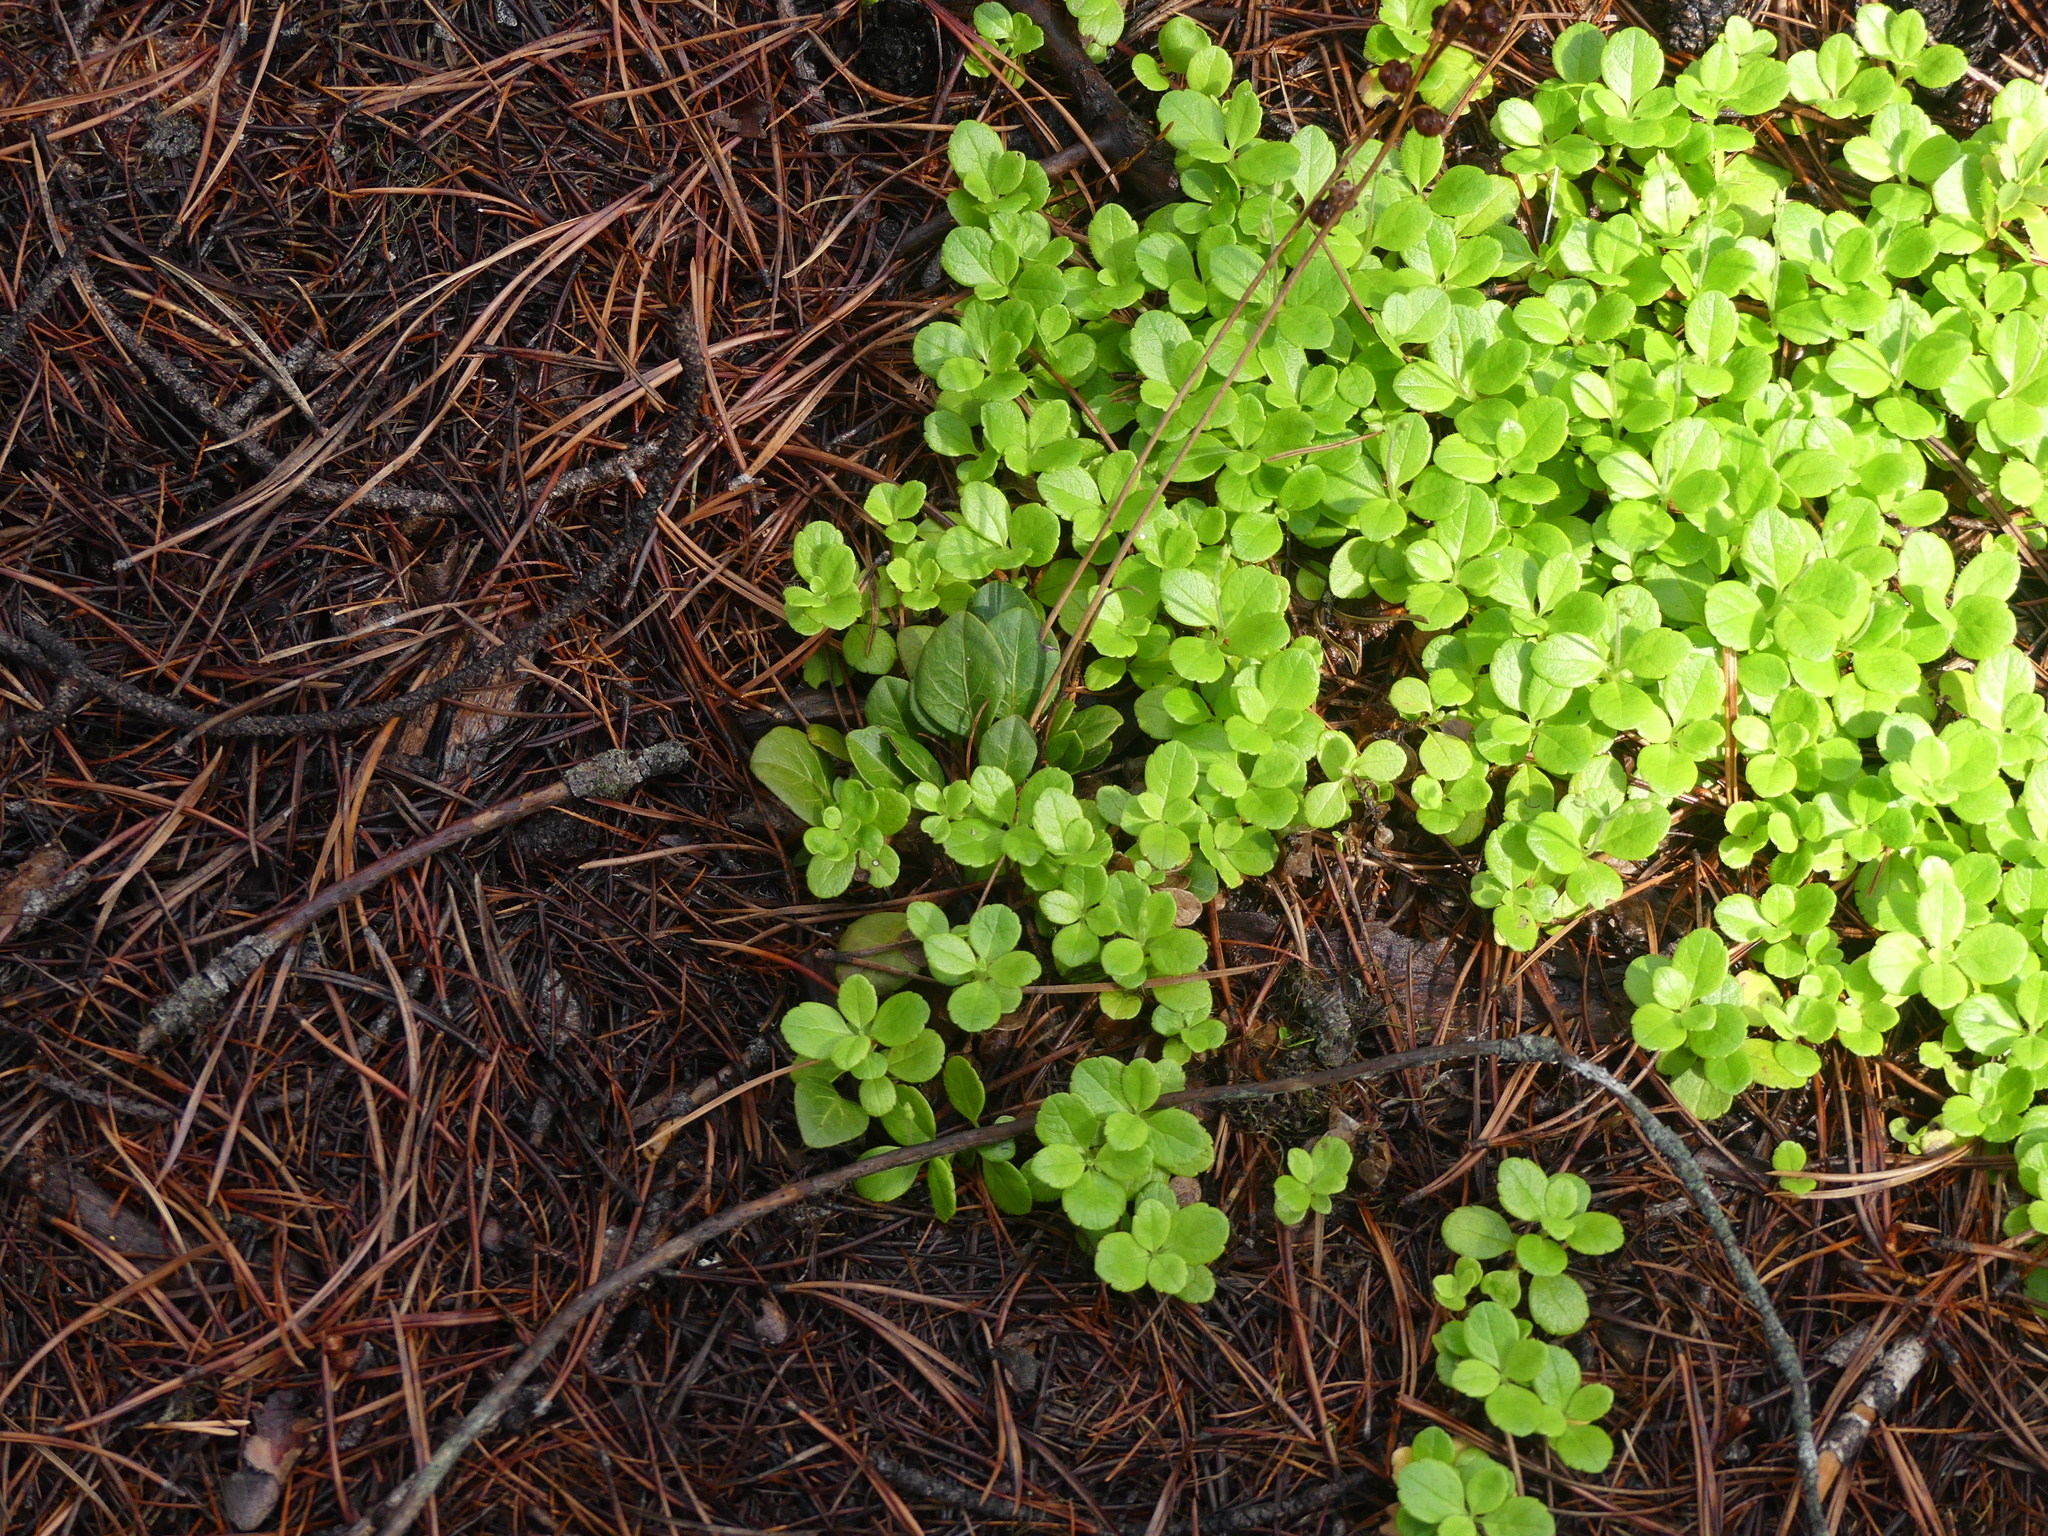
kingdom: Plantae
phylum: Tracheophyta
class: Magnoliopsida
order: Dipsacales
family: Caprifoliaceae
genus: Linnaea
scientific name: Linnaea borealis
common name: Twinflower
